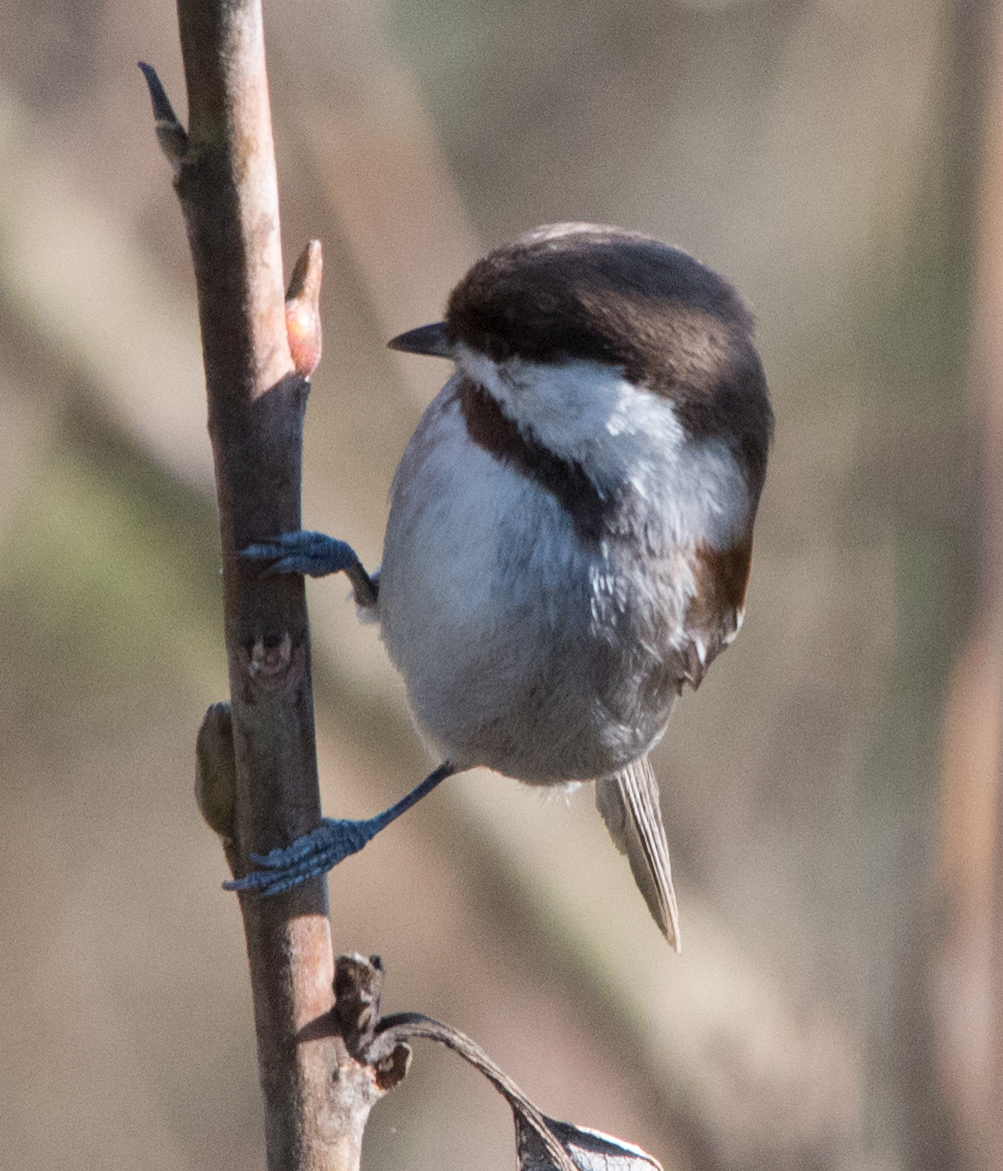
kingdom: Animalia
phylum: Chordata
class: Aves
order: Passeriformes
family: Paridae
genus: Poecile
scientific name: Poecile rufescens
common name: Chestnut-backed chickadee
